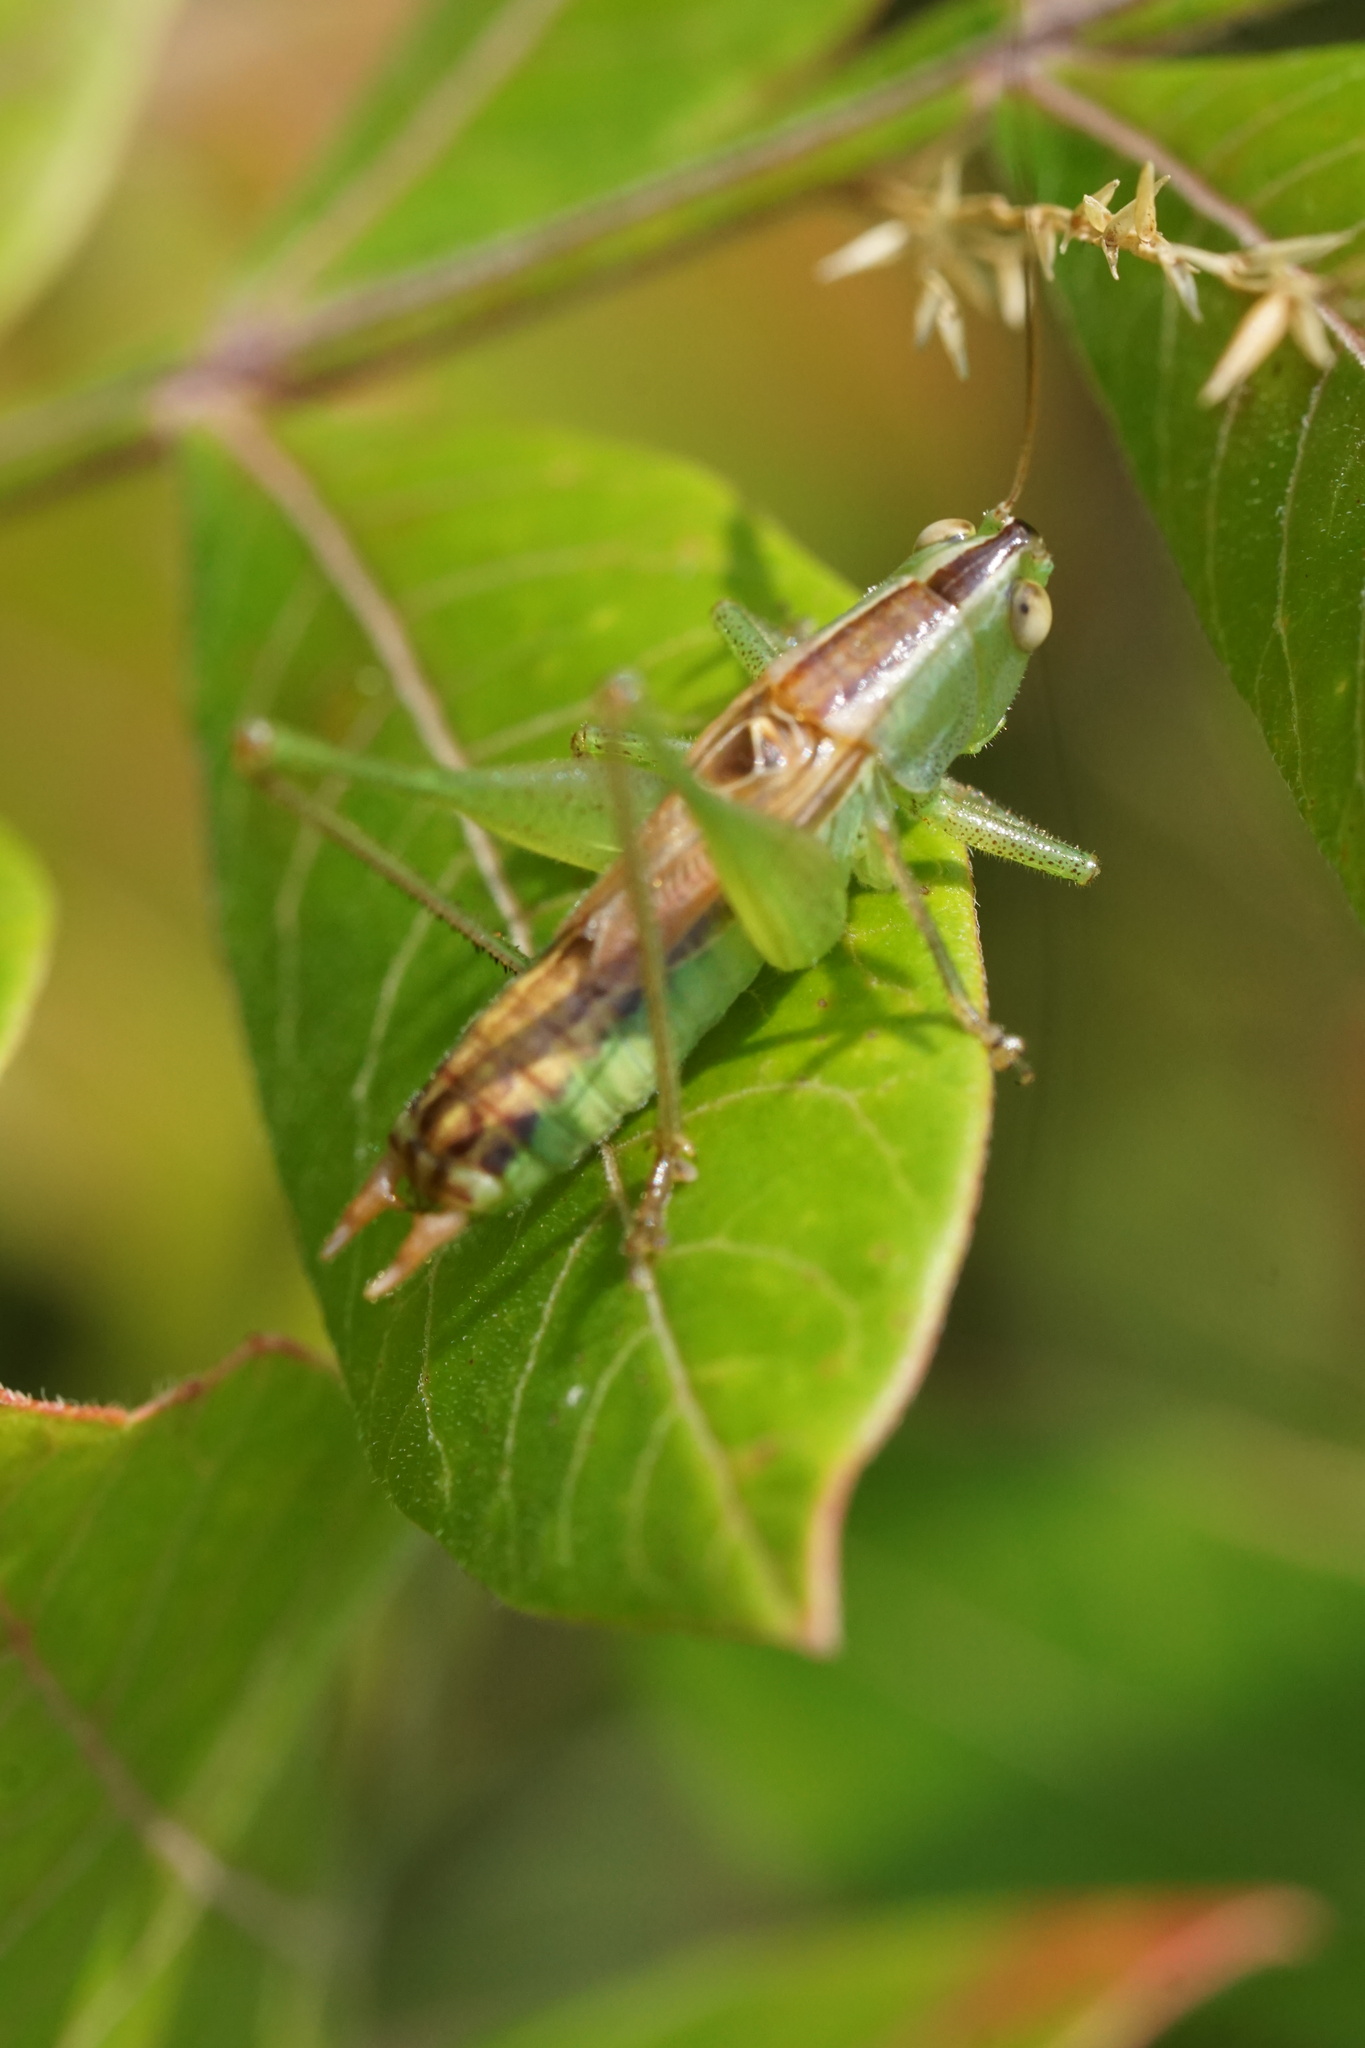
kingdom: Animalia
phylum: Arthropoda
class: Insecta
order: Orthoptera
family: Tettigoniidae
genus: Conocephalus
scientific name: Conocephalus strictus
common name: Straight-lanced katydid
